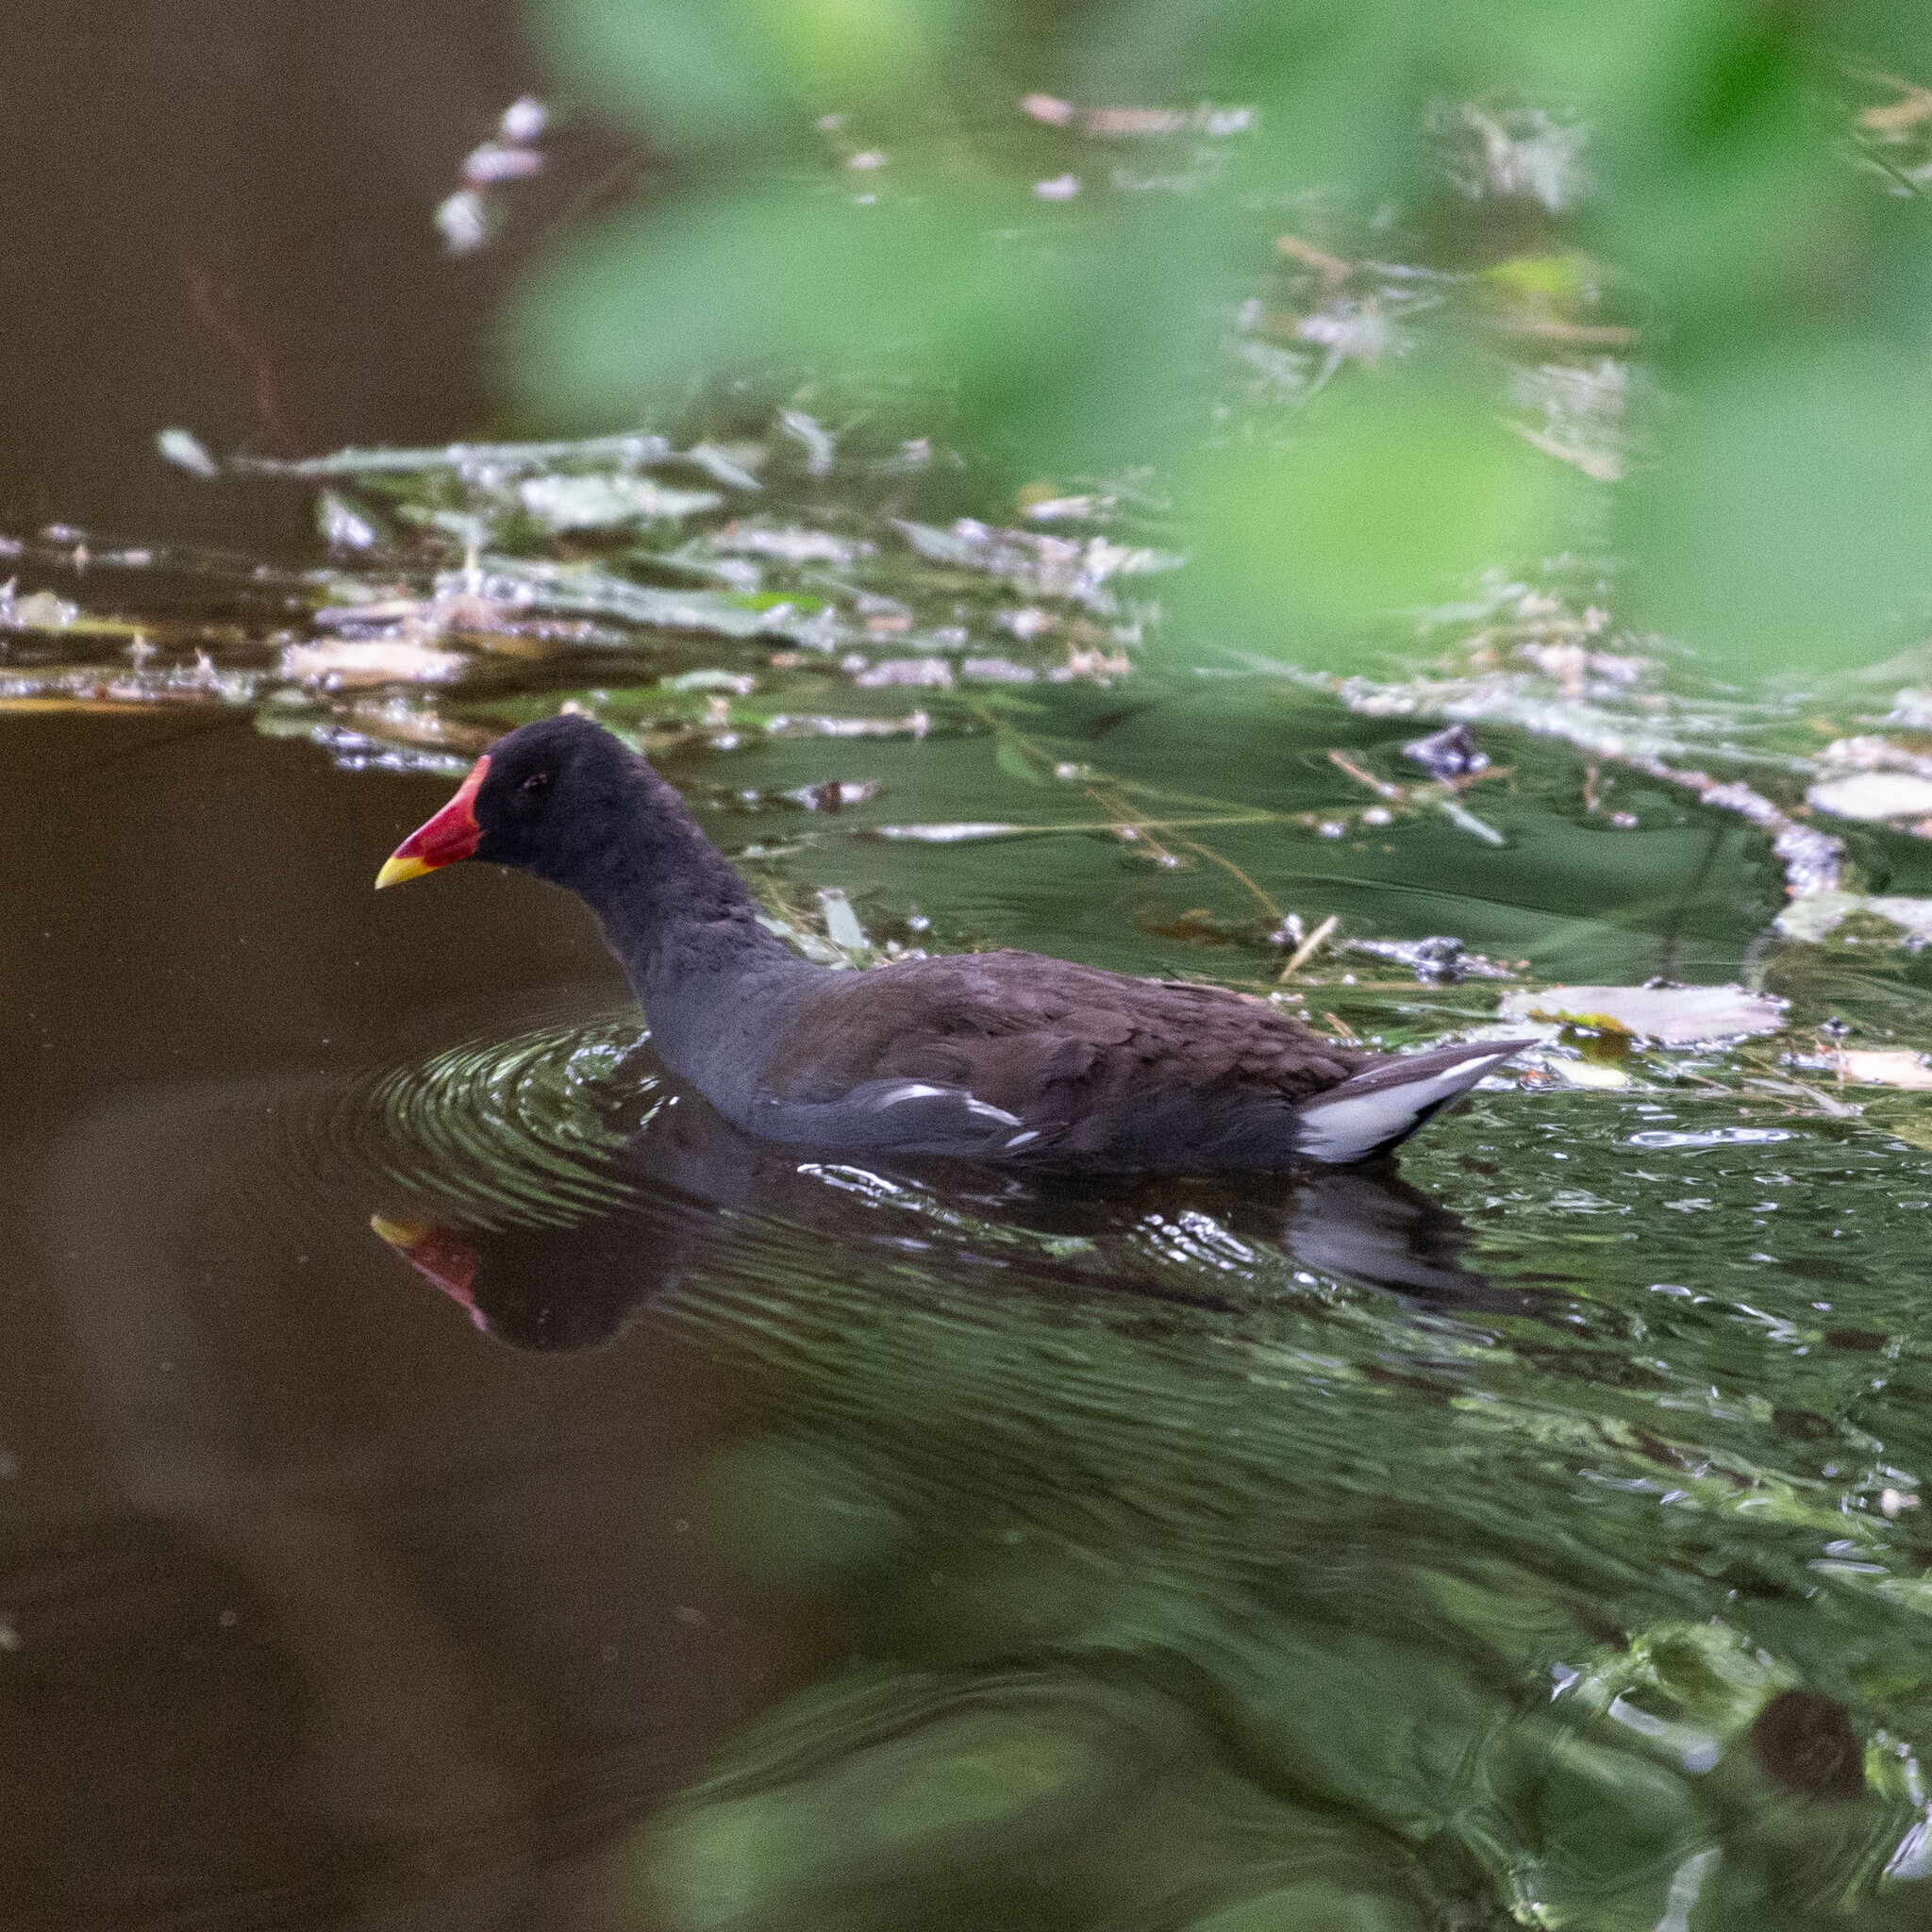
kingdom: Animalia
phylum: Chordata
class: Aves
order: Gruiformes
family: Rallidae
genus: Gallinula
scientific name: Gallinula chloropus
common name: Common moorhen
